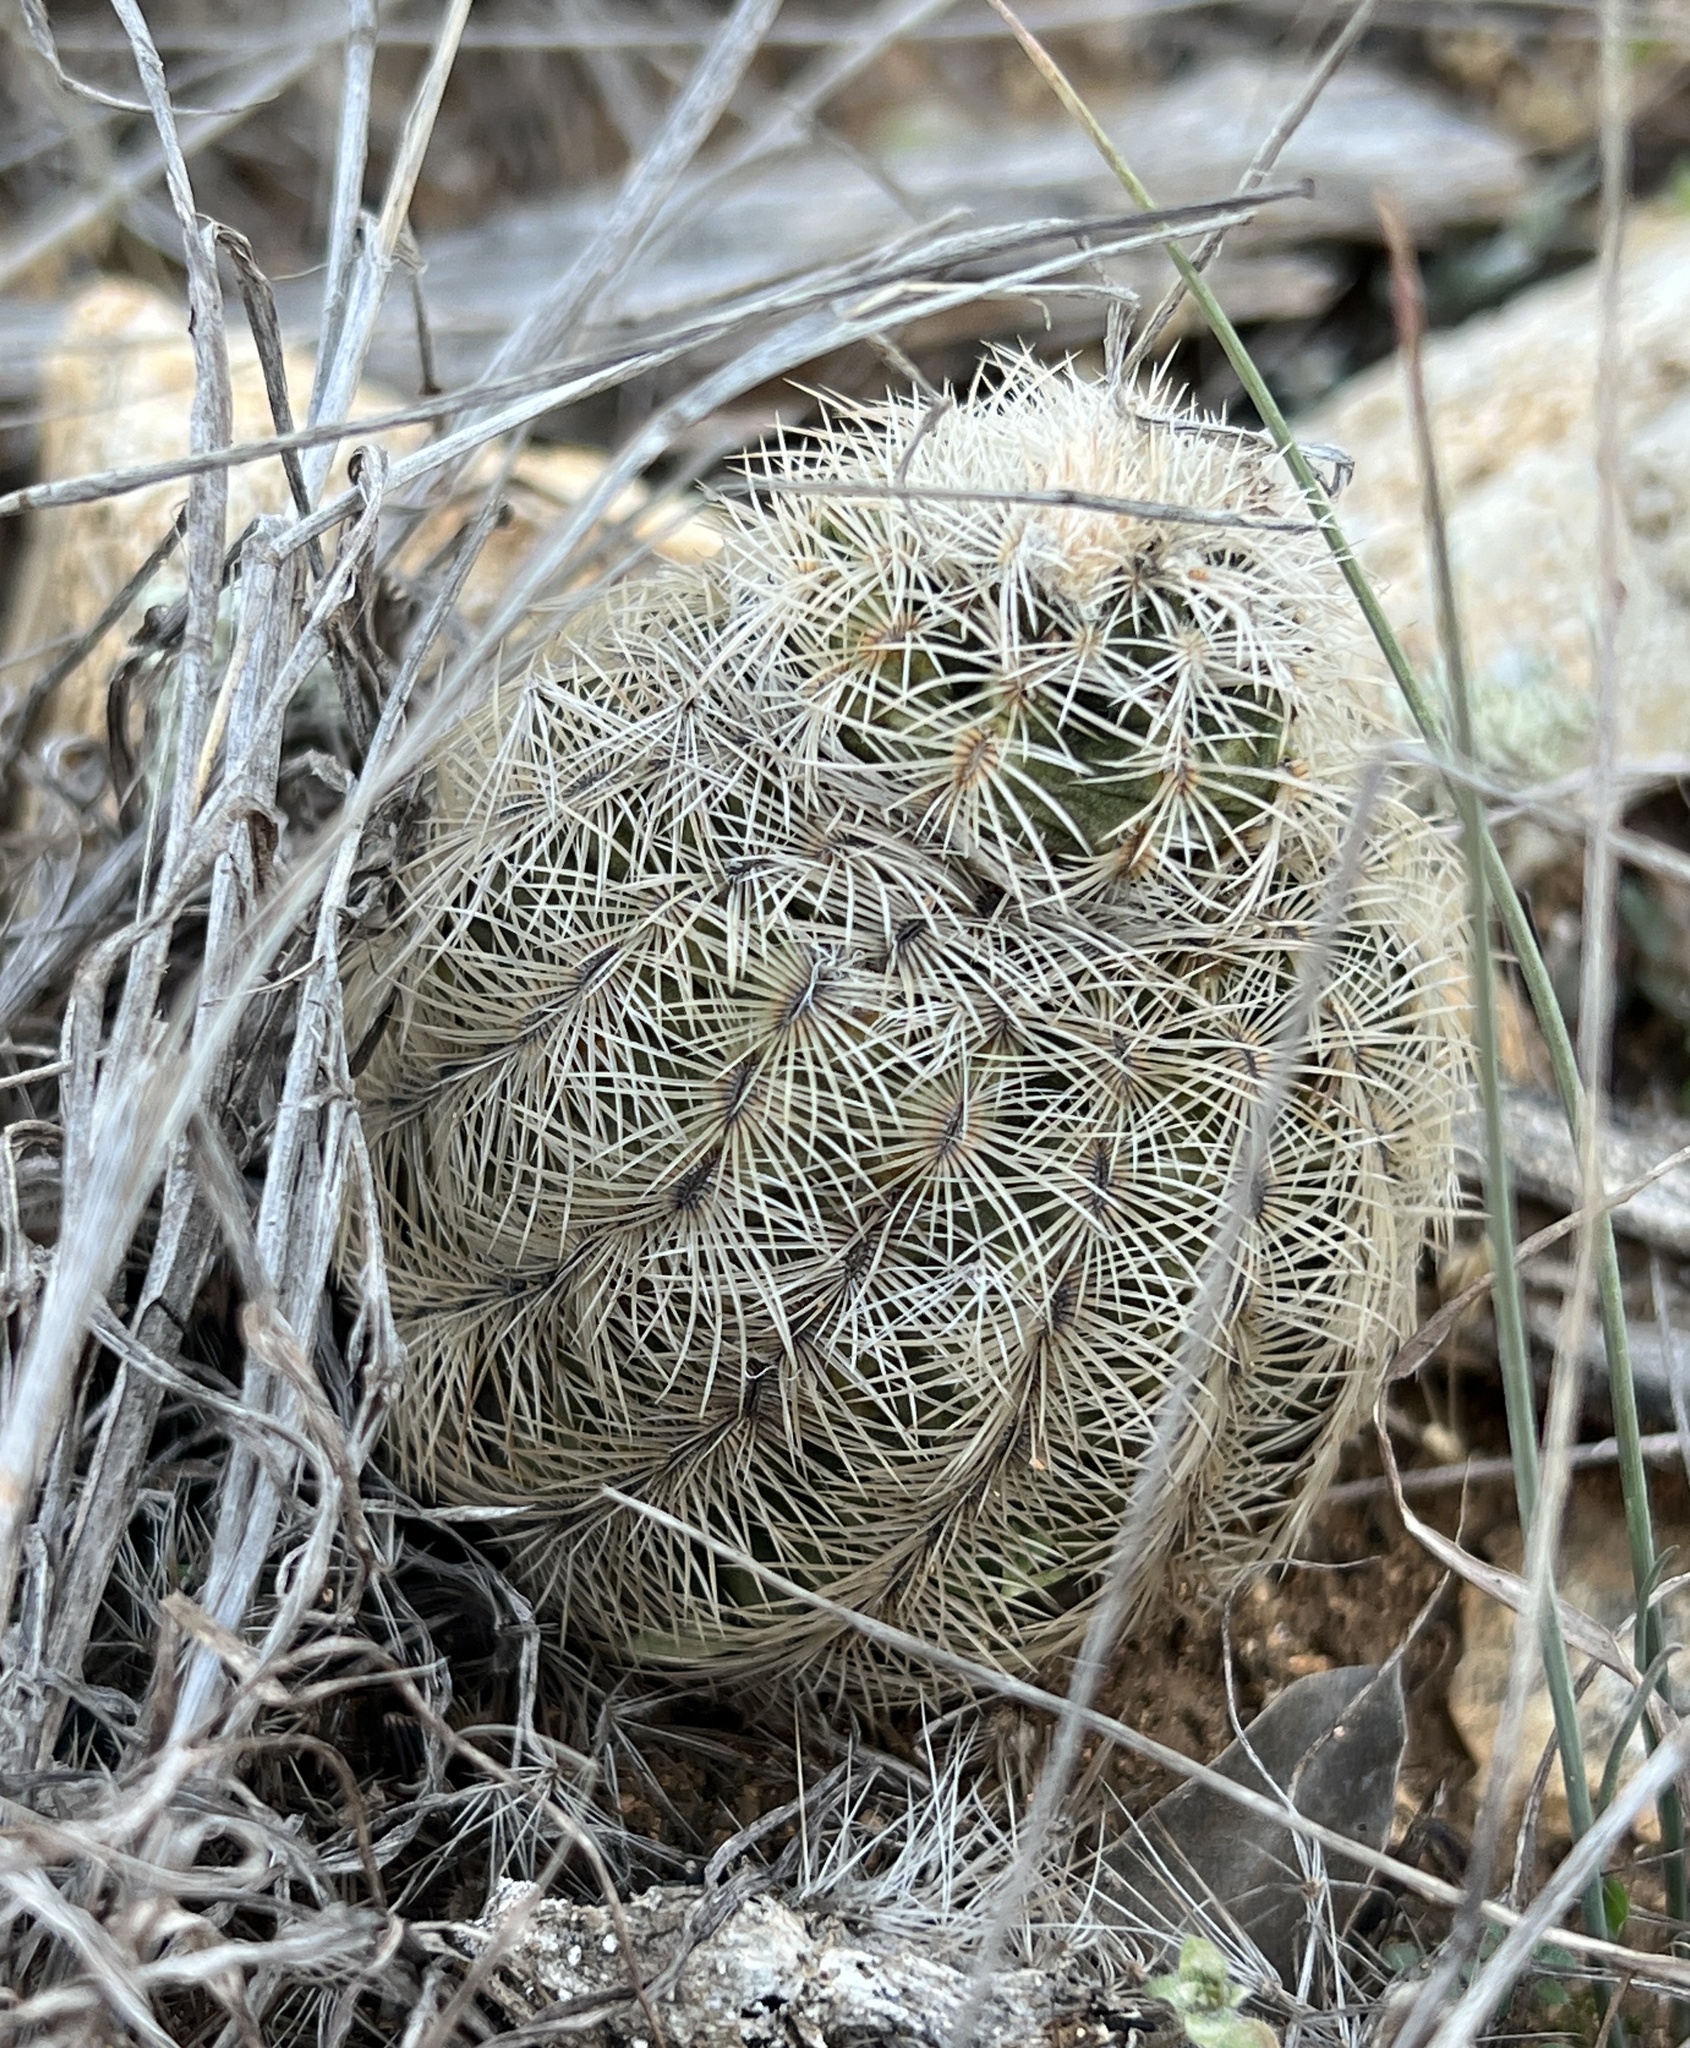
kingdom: Plantae
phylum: Tracheophyta
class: Magnoliopsida
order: Caryophyllales
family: Cactaceae
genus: Echinocereus
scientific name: Echinocereus reichenbachii
